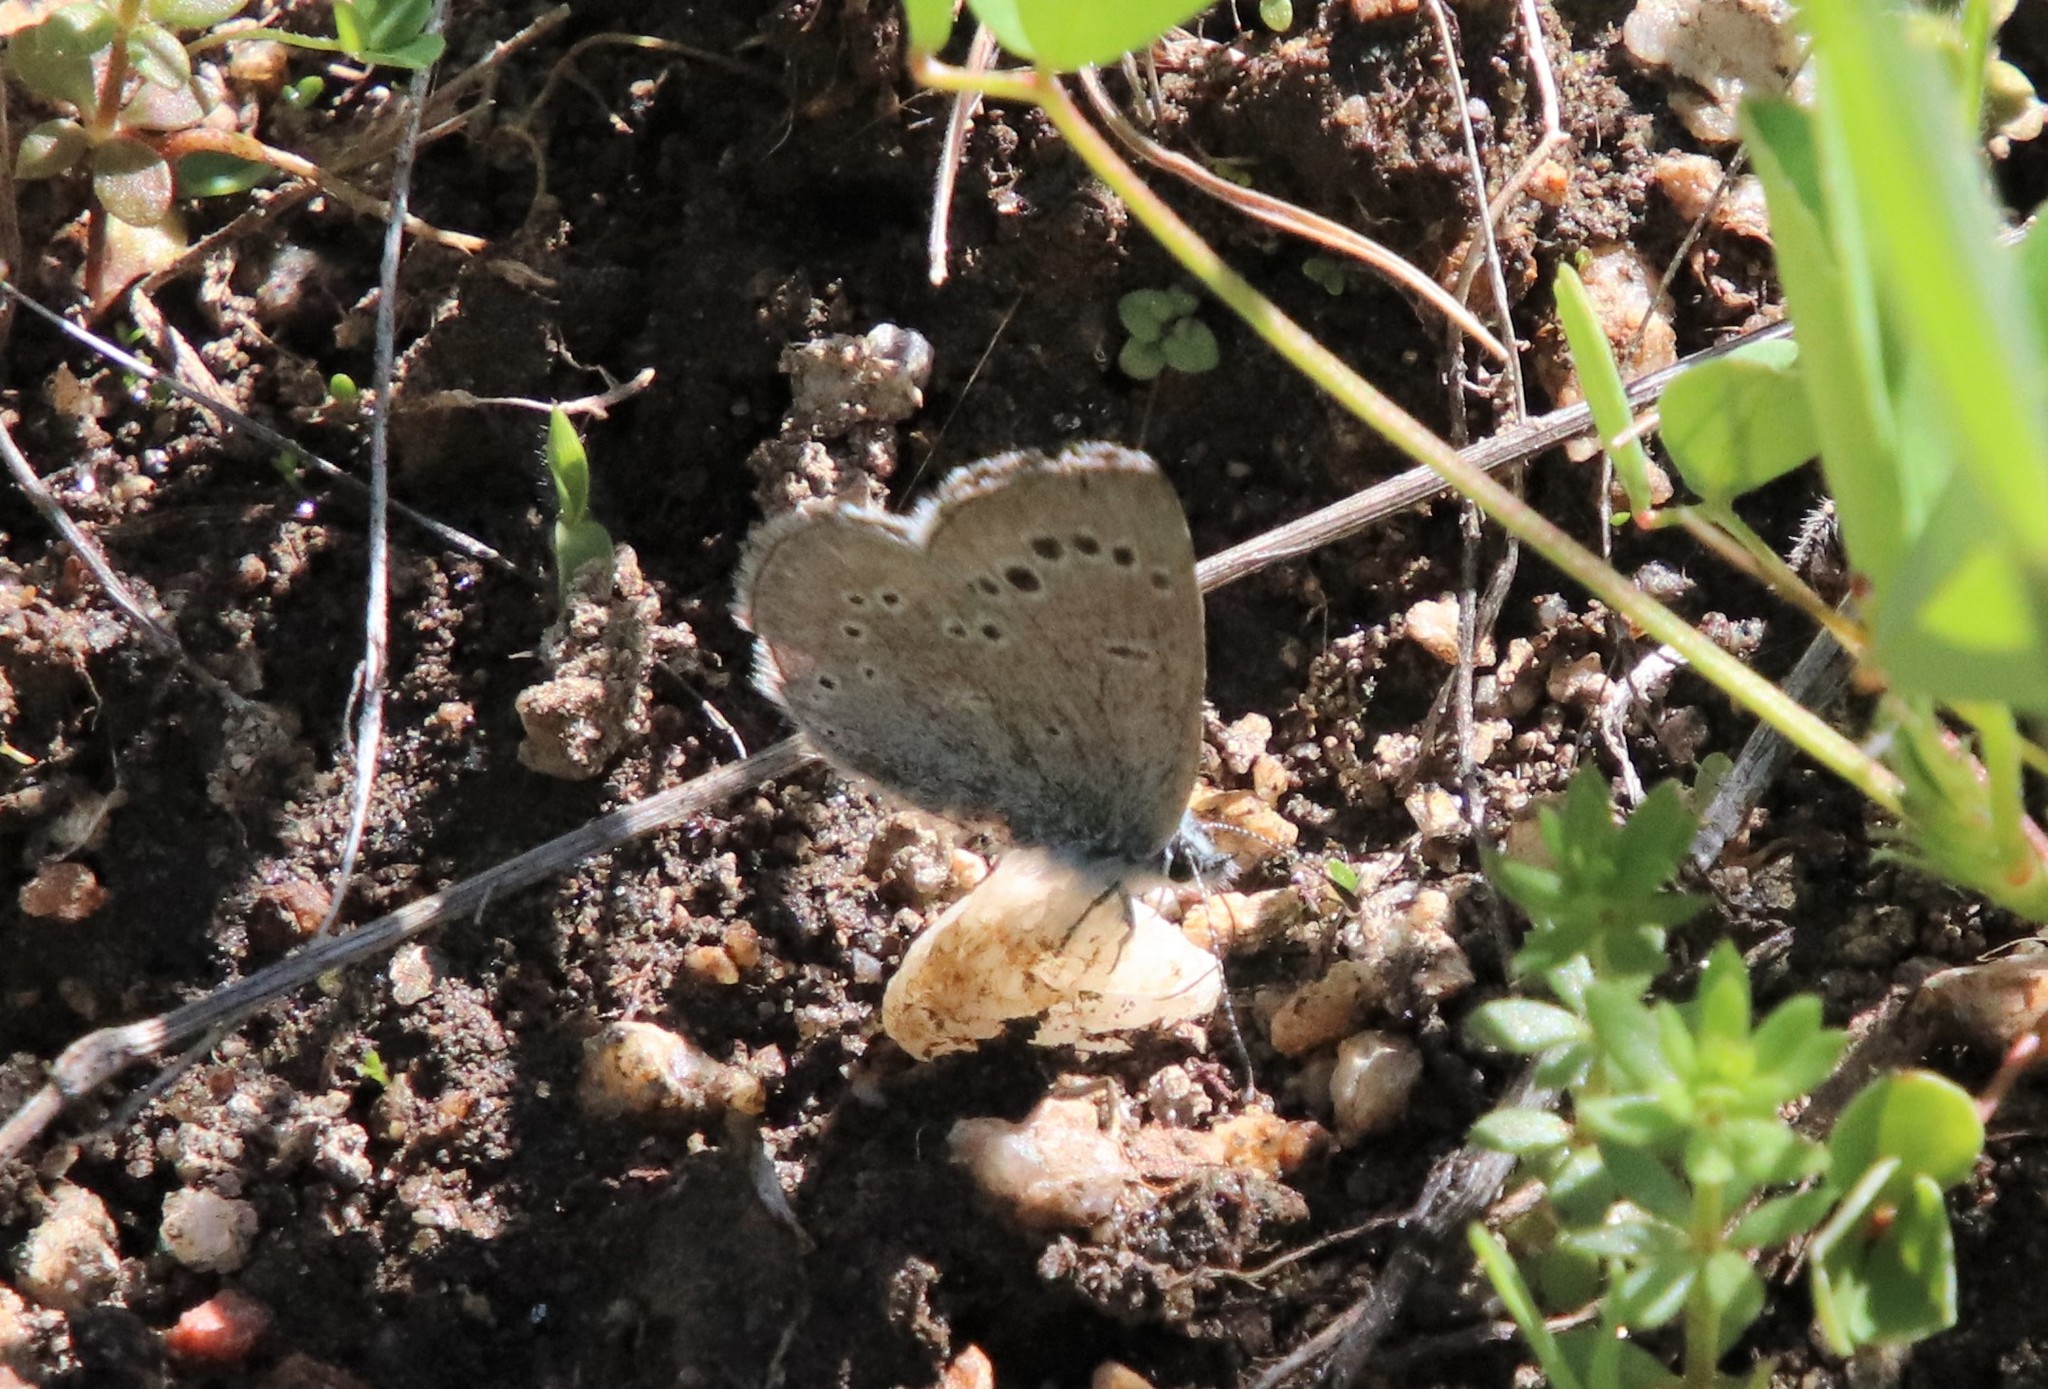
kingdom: Animalia
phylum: Arthropoda
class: Insecta
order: Lepidoptera
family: Lycaenidae
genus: Glaucopsyche
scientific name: Glaucopsyche lygdamus
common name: Silvery blue
